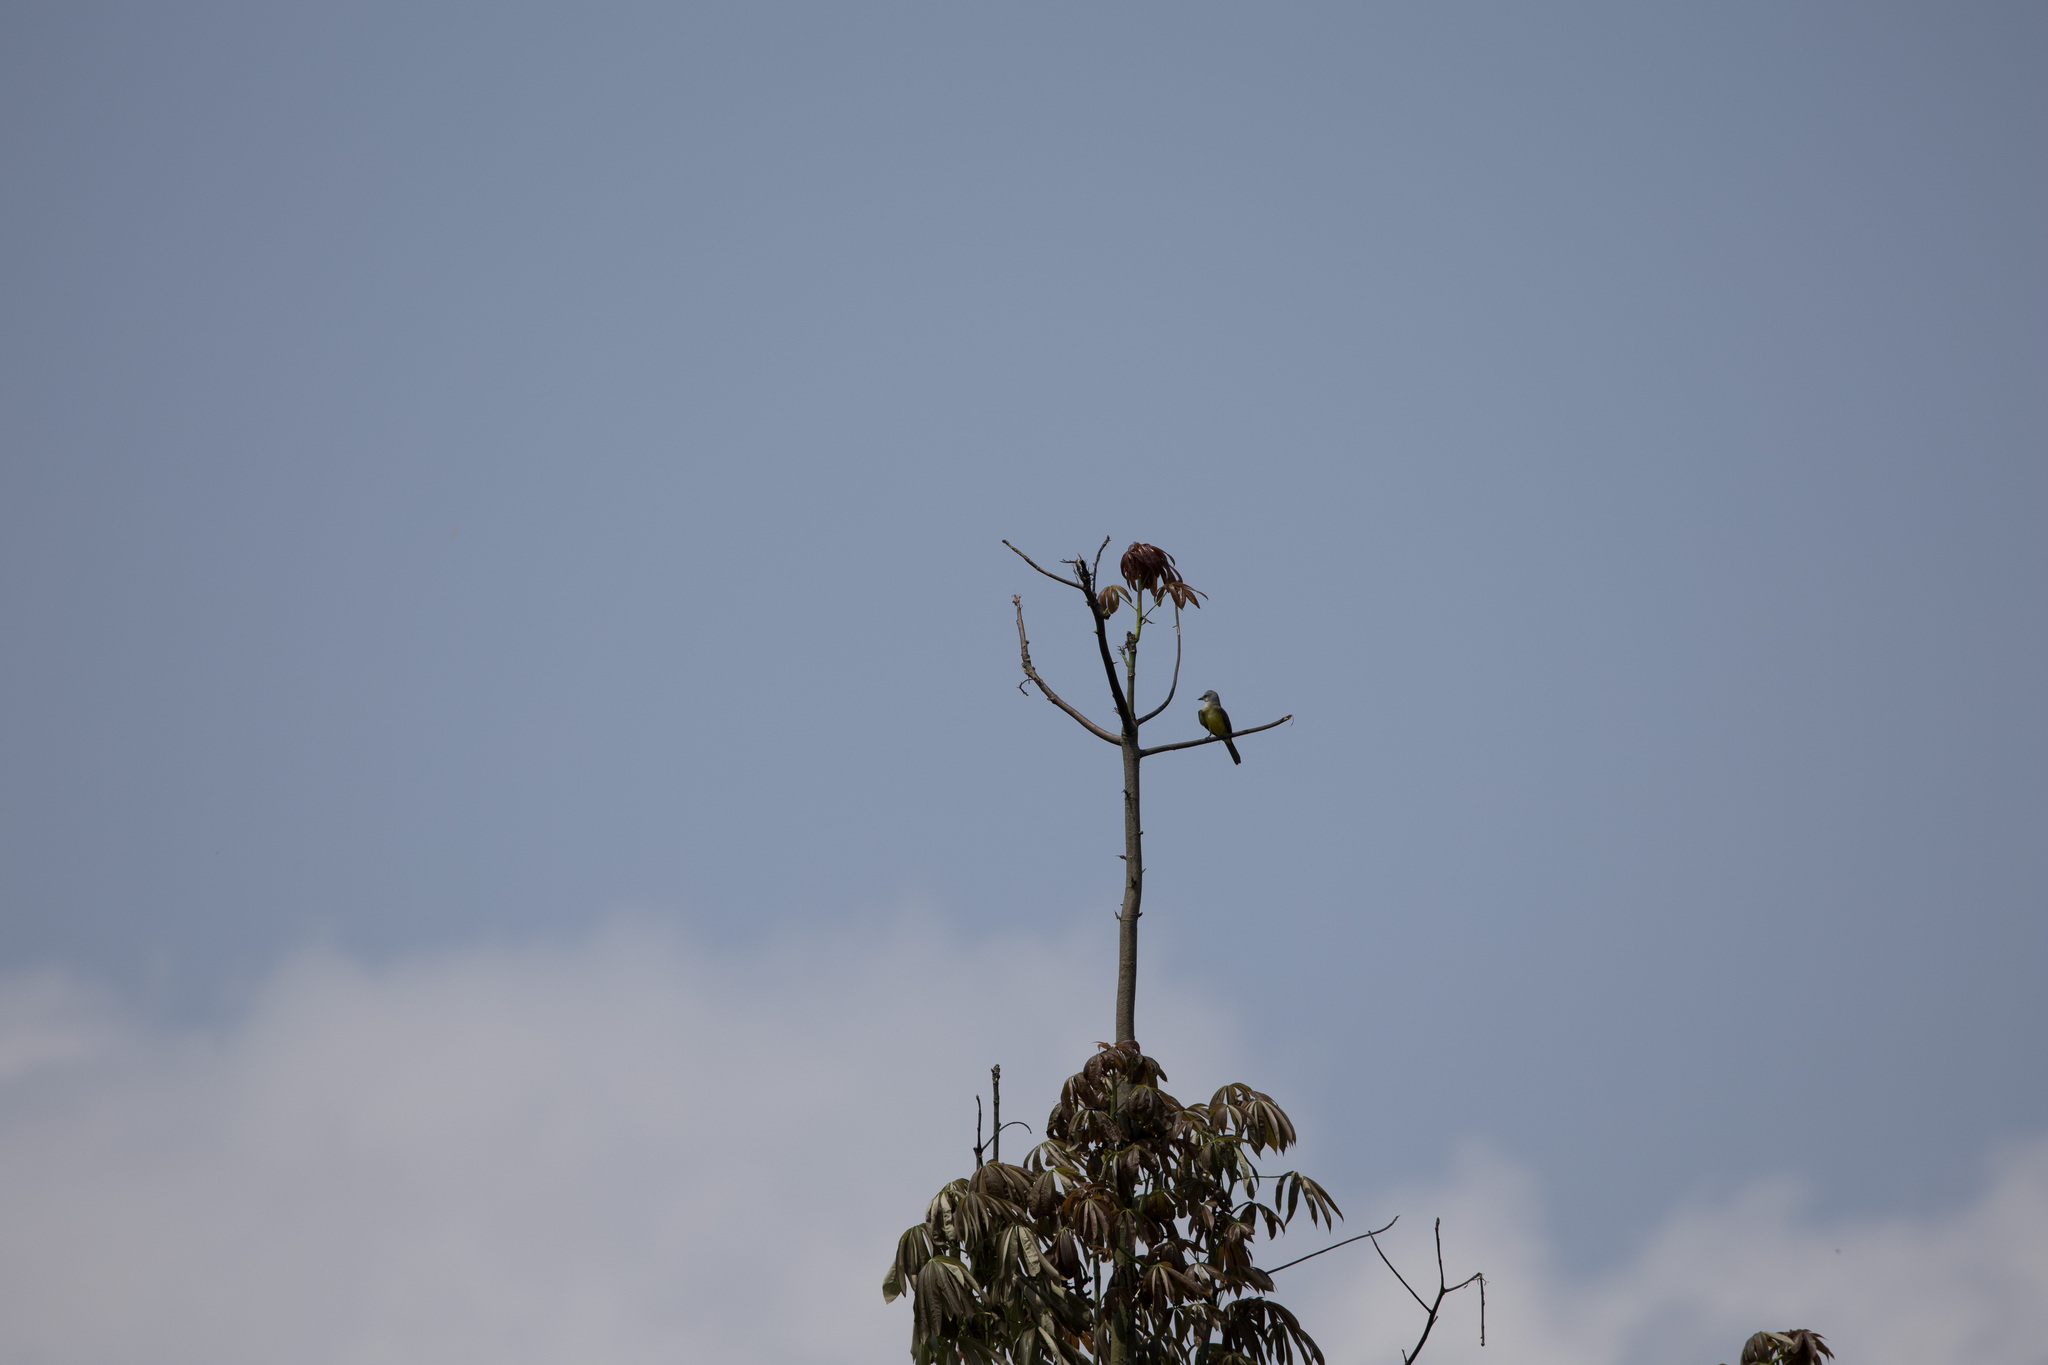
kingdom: Animalia
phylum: Chordata
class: Aves
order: Passeriformes
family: Tyrannidae
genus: Tyrannus
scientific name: Tyrannus melancholicus
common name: Tropical kingbird
